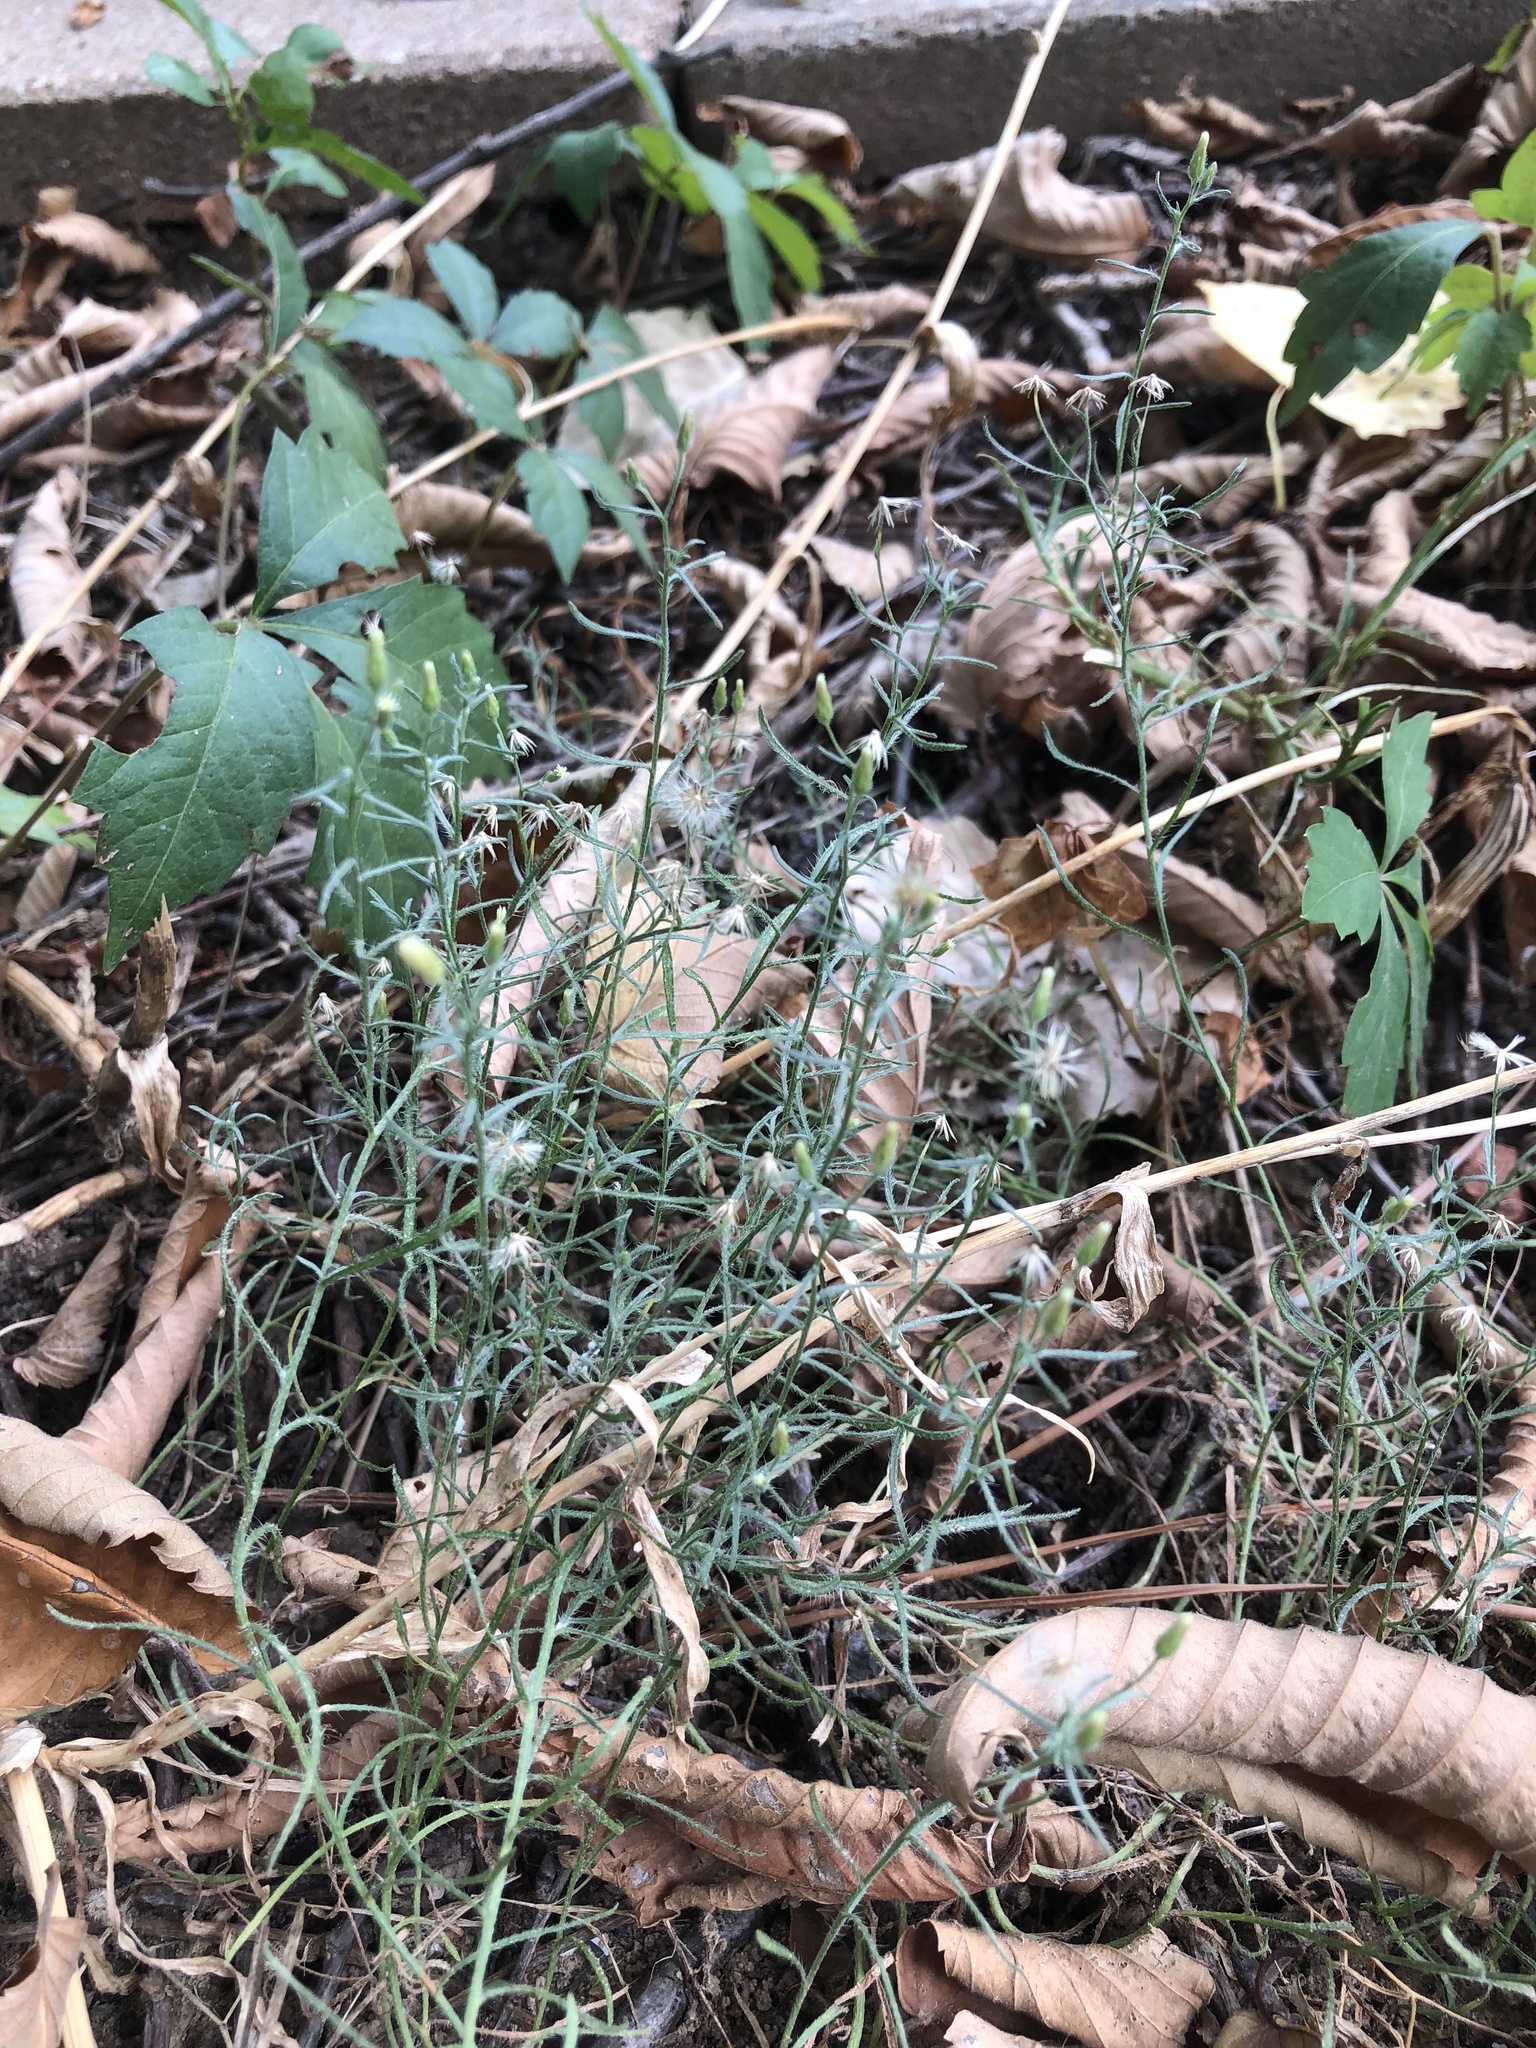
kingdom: Plantae
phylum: Tracheophyta
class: Magnoliopsida
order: Asterales
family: Asteraceae
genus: Erigeron
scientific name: Erigeron divaricatus
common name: Dwarf conyza
